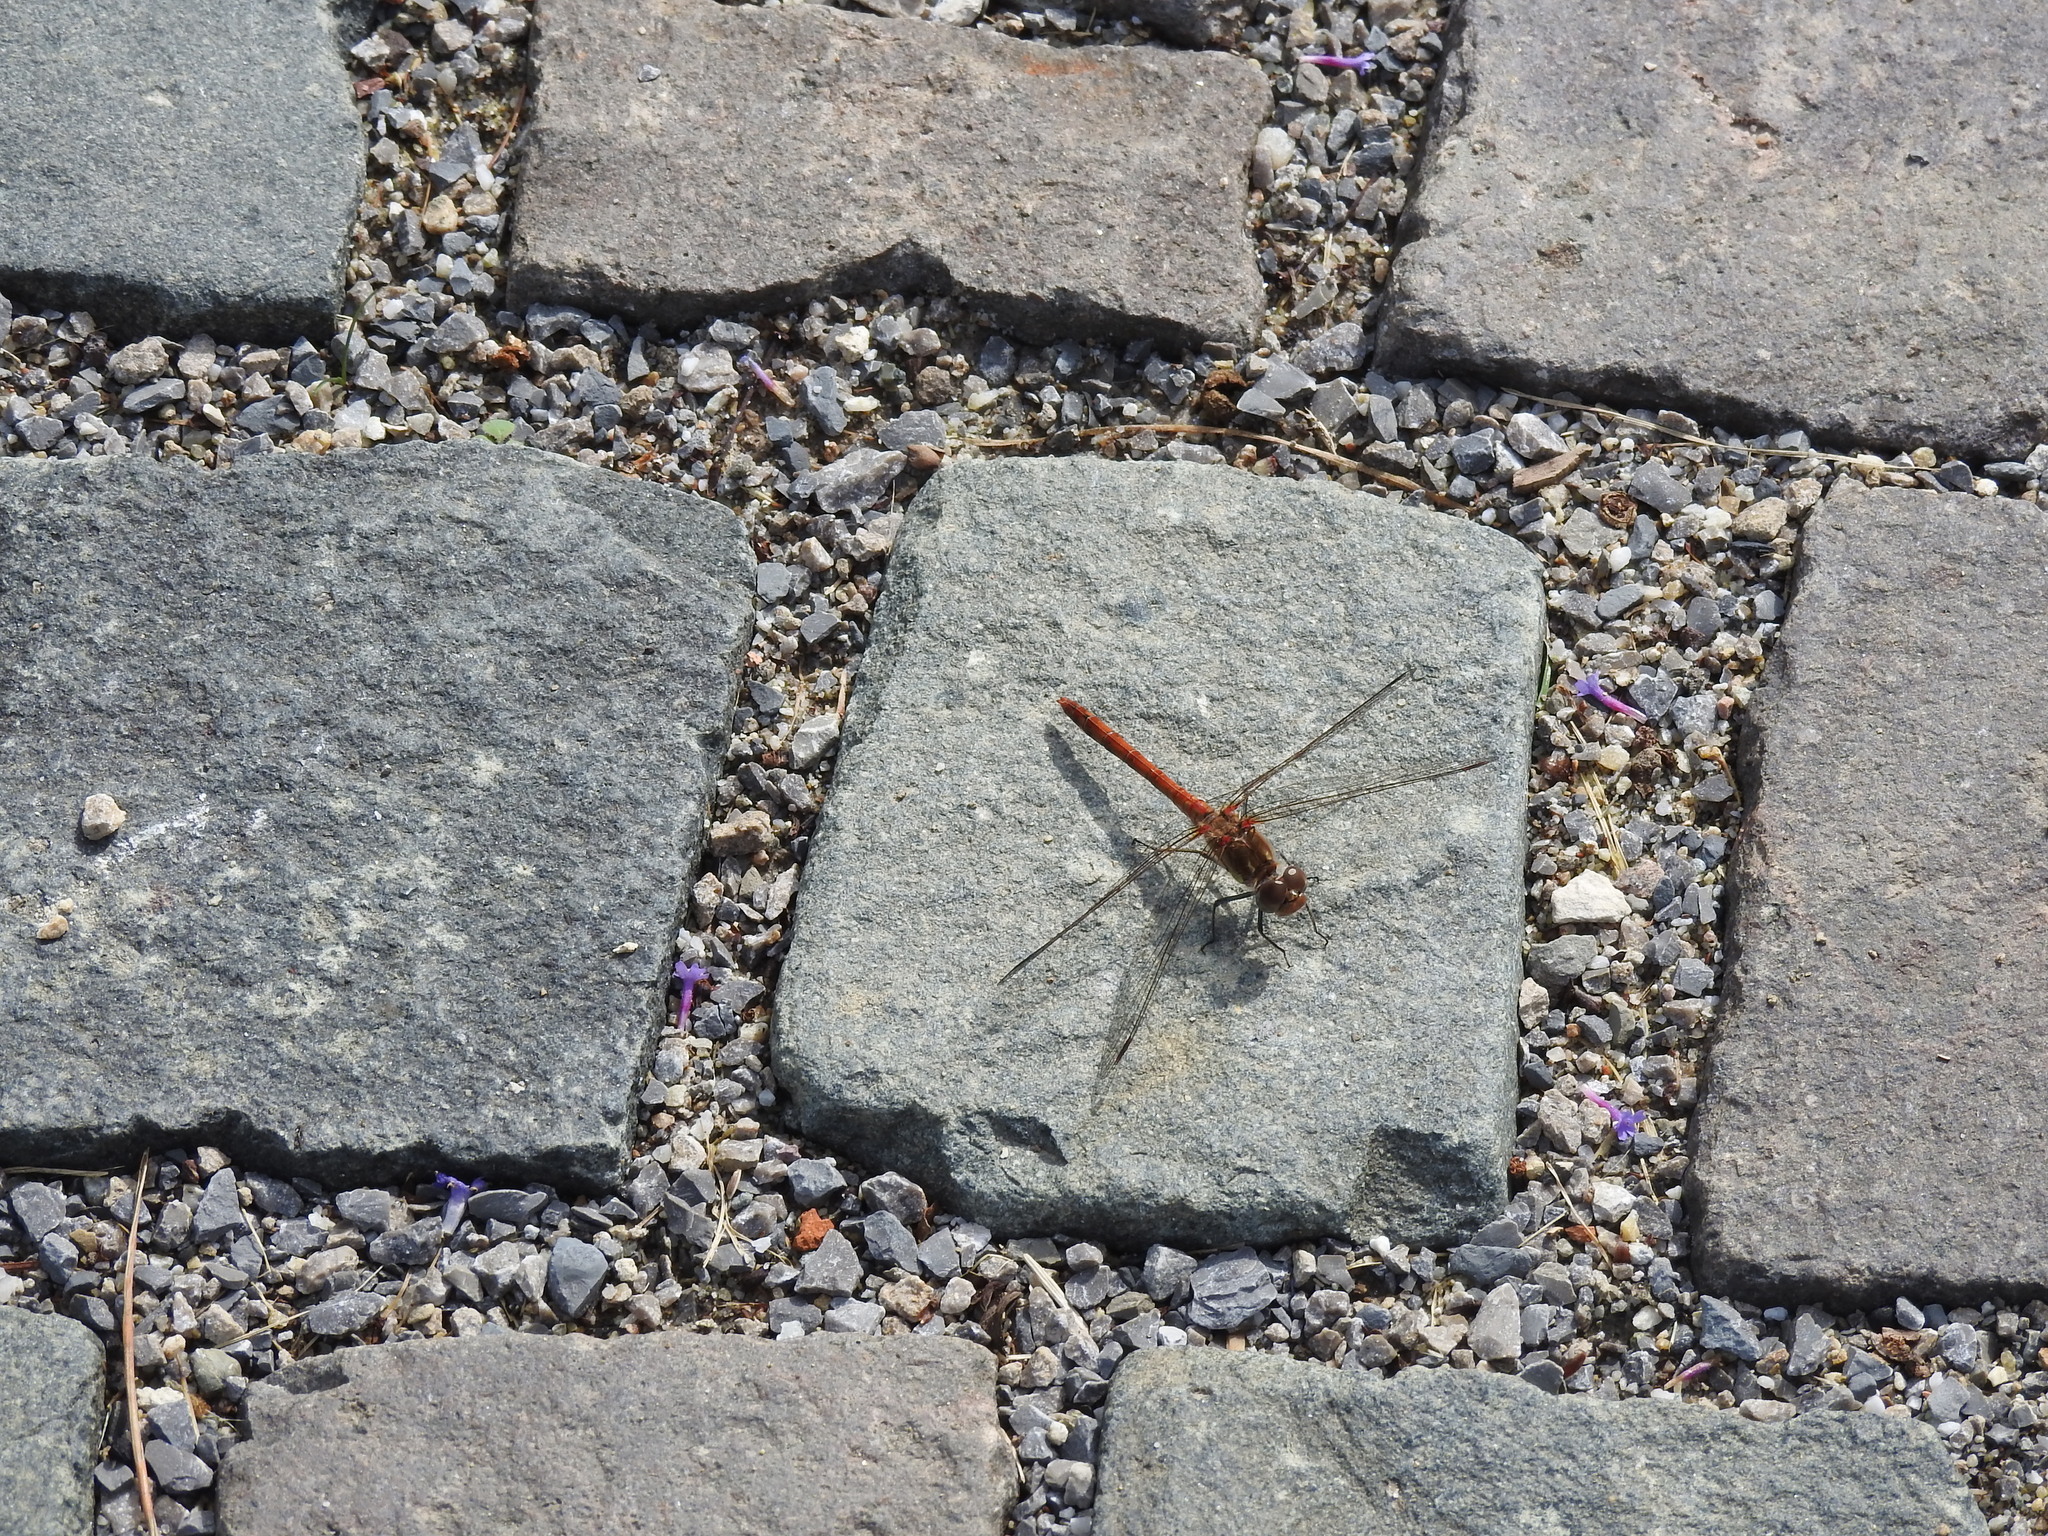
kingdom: Animalia
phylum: Arthropoda
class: Insecta
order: Odonata
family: Libellulidae
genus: Sympetrum
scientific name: Sympetrum striolatum
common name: Common darter
